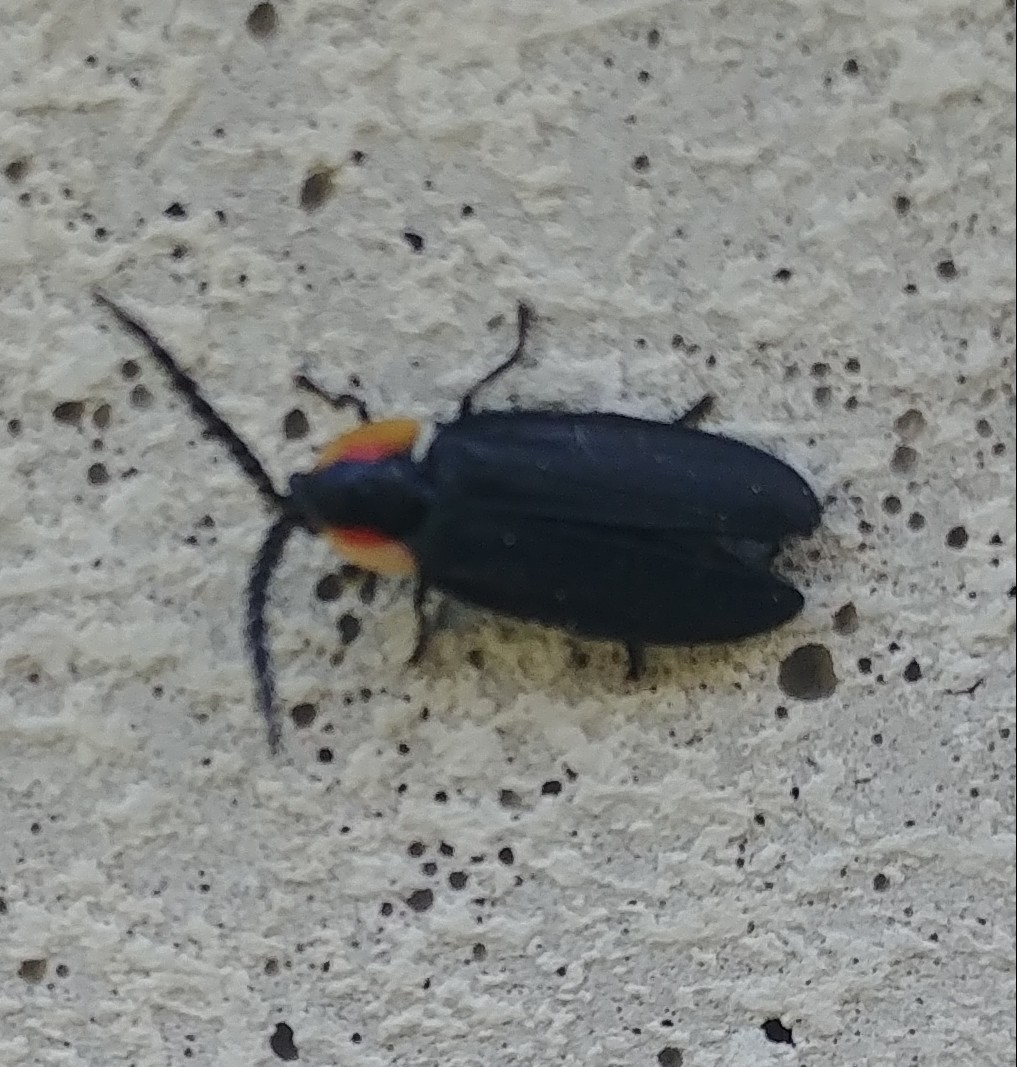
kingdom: Animalia
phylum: Arthropoda
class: Insecta
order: Coleoptera
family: Lampyridae
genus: Lucidota
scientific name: Lucidota atra
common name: Black firefly
